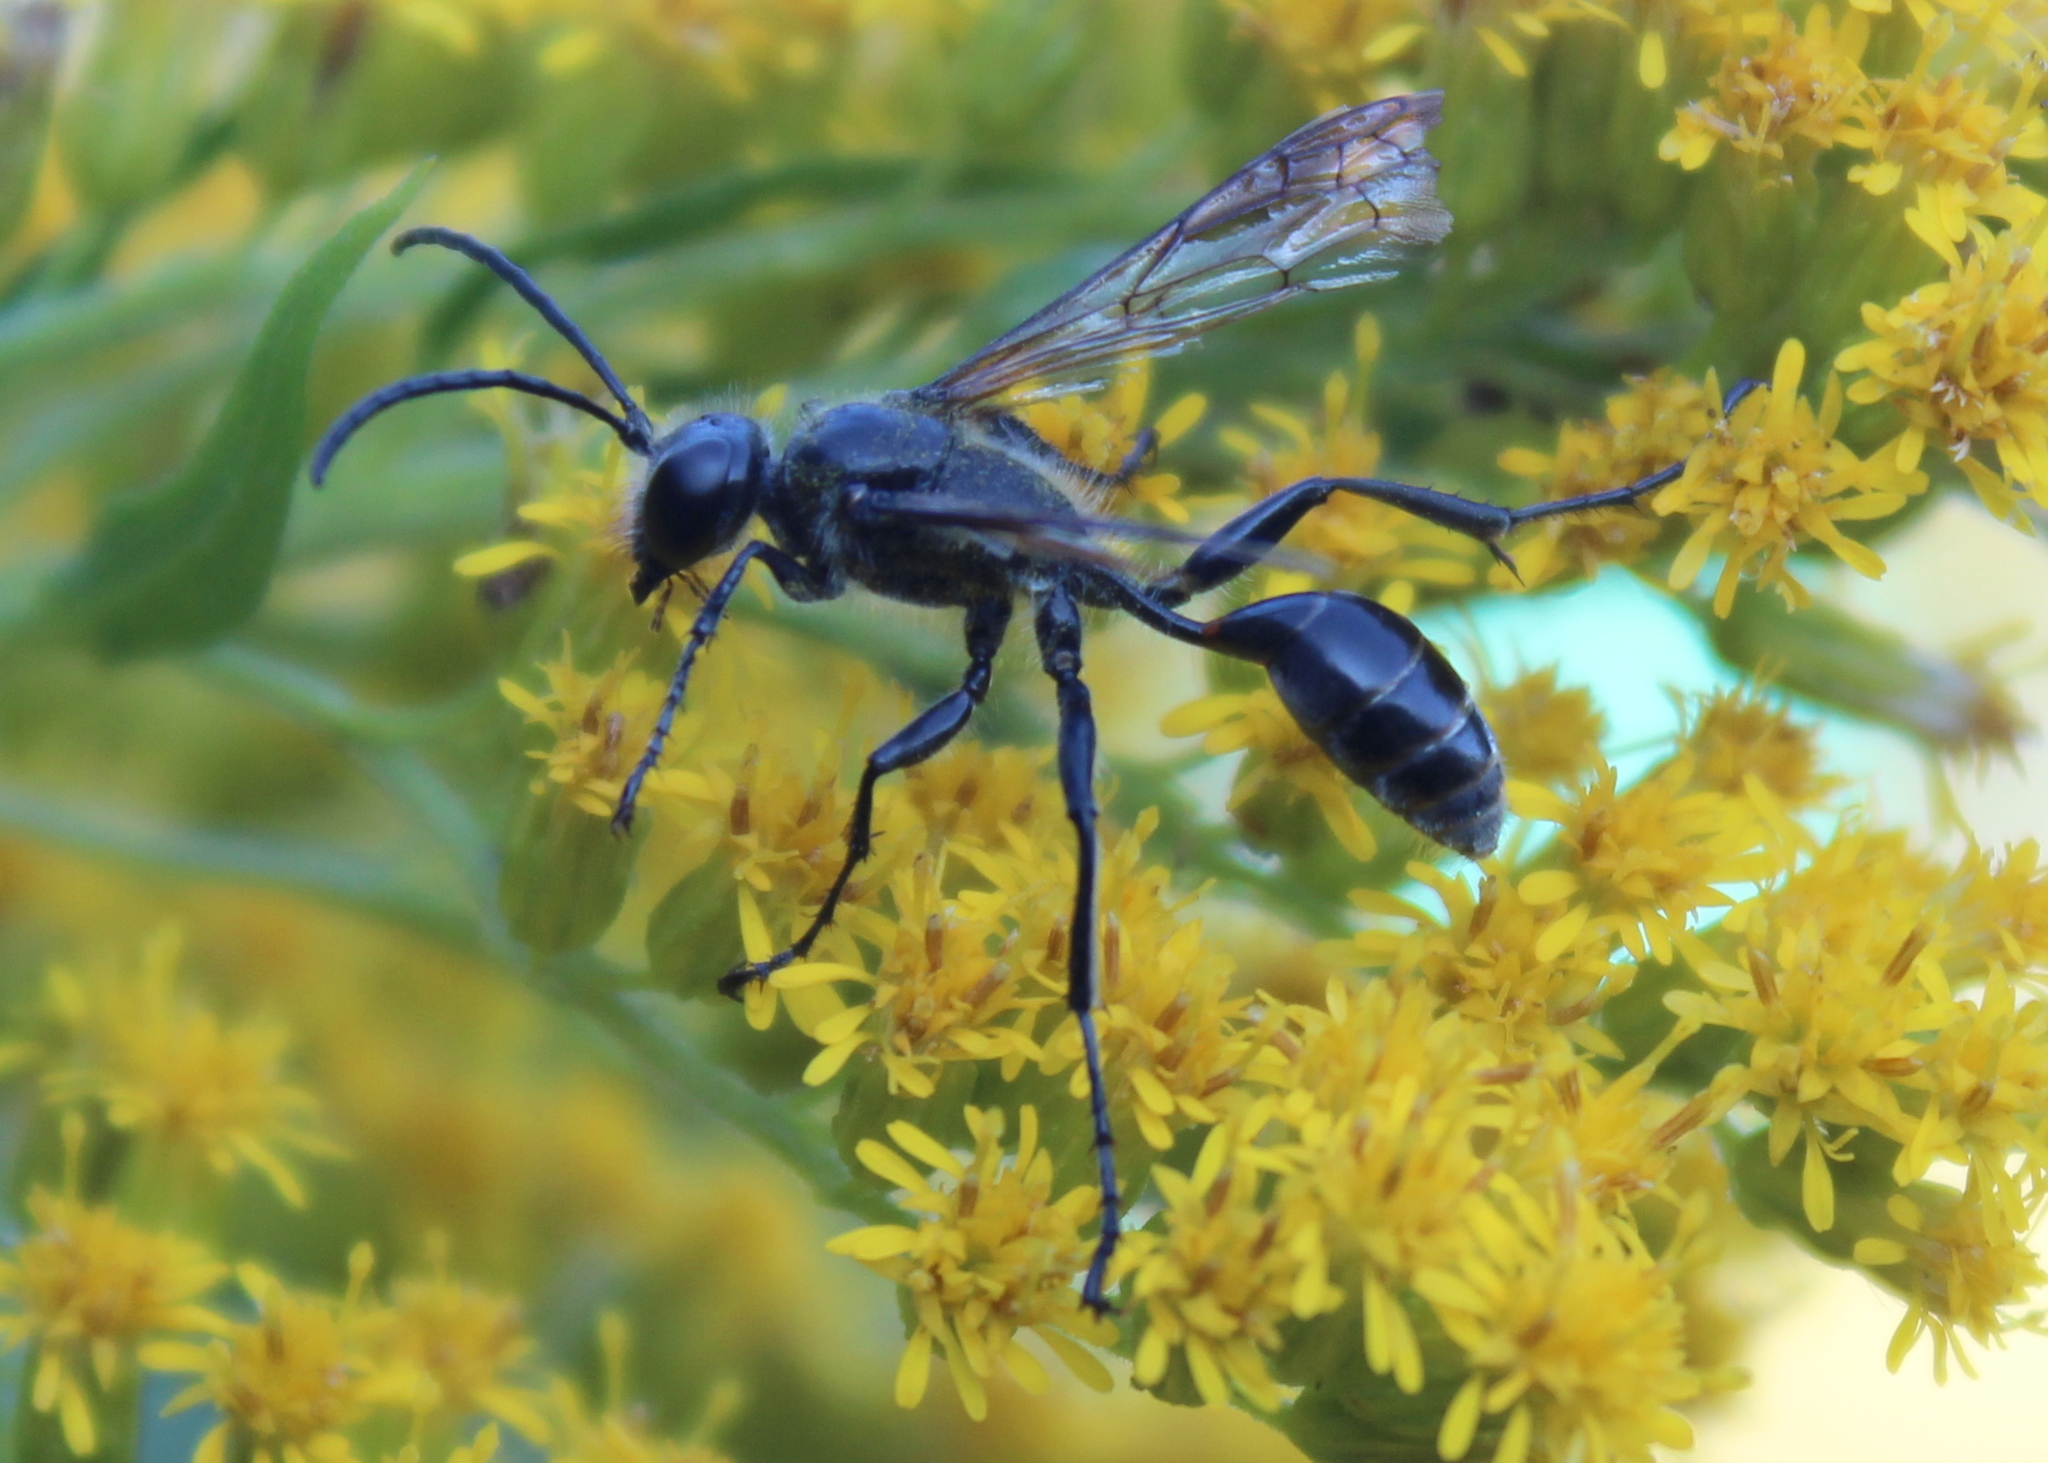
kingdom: Animalia
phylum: Arthropoda
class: Insecta
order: Hymenoptera
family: Sphecidae
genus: Isodontia
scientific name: Isodontia mexicana
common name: Mud dauber
